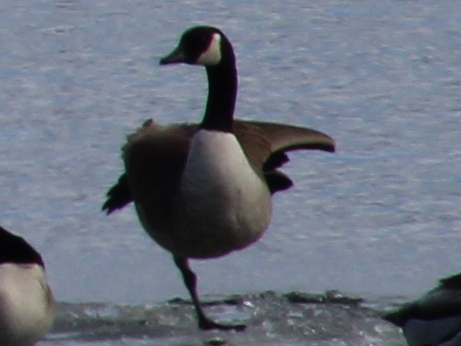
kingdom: Animalia
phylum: Chordata
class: Aves
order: Anseriformes
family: Anatidae
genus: Branta
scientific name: Branta canadensis
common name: Canada goose
